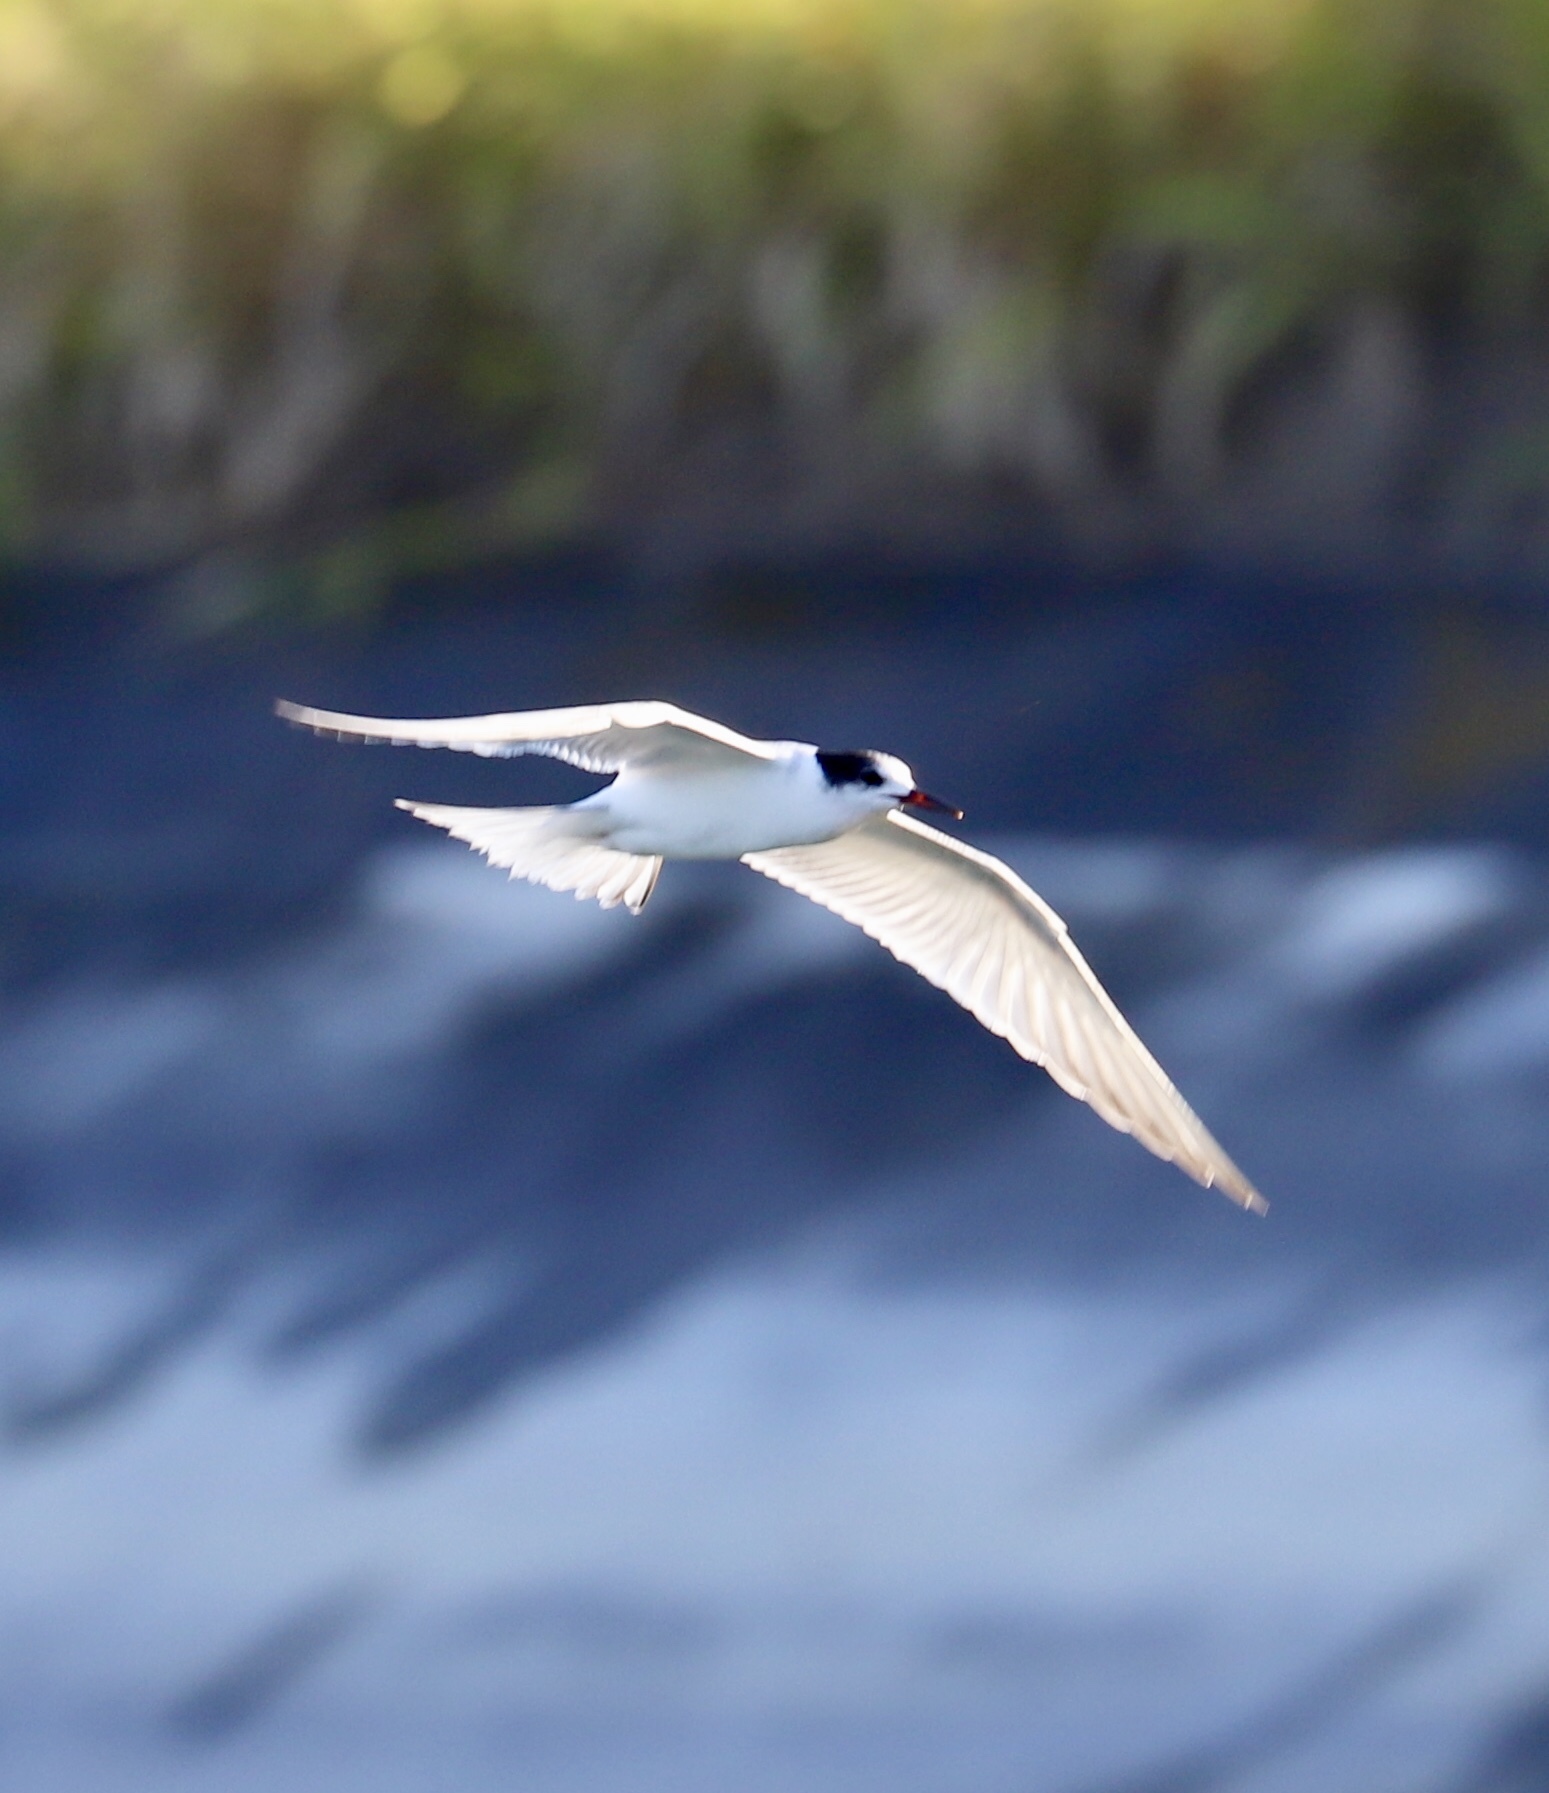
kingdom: Animalia
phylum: Chordata
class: Aves
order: Charadriiformes
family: Laridae
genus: Sterna
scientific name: Sterna hirundo
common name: Common tern
